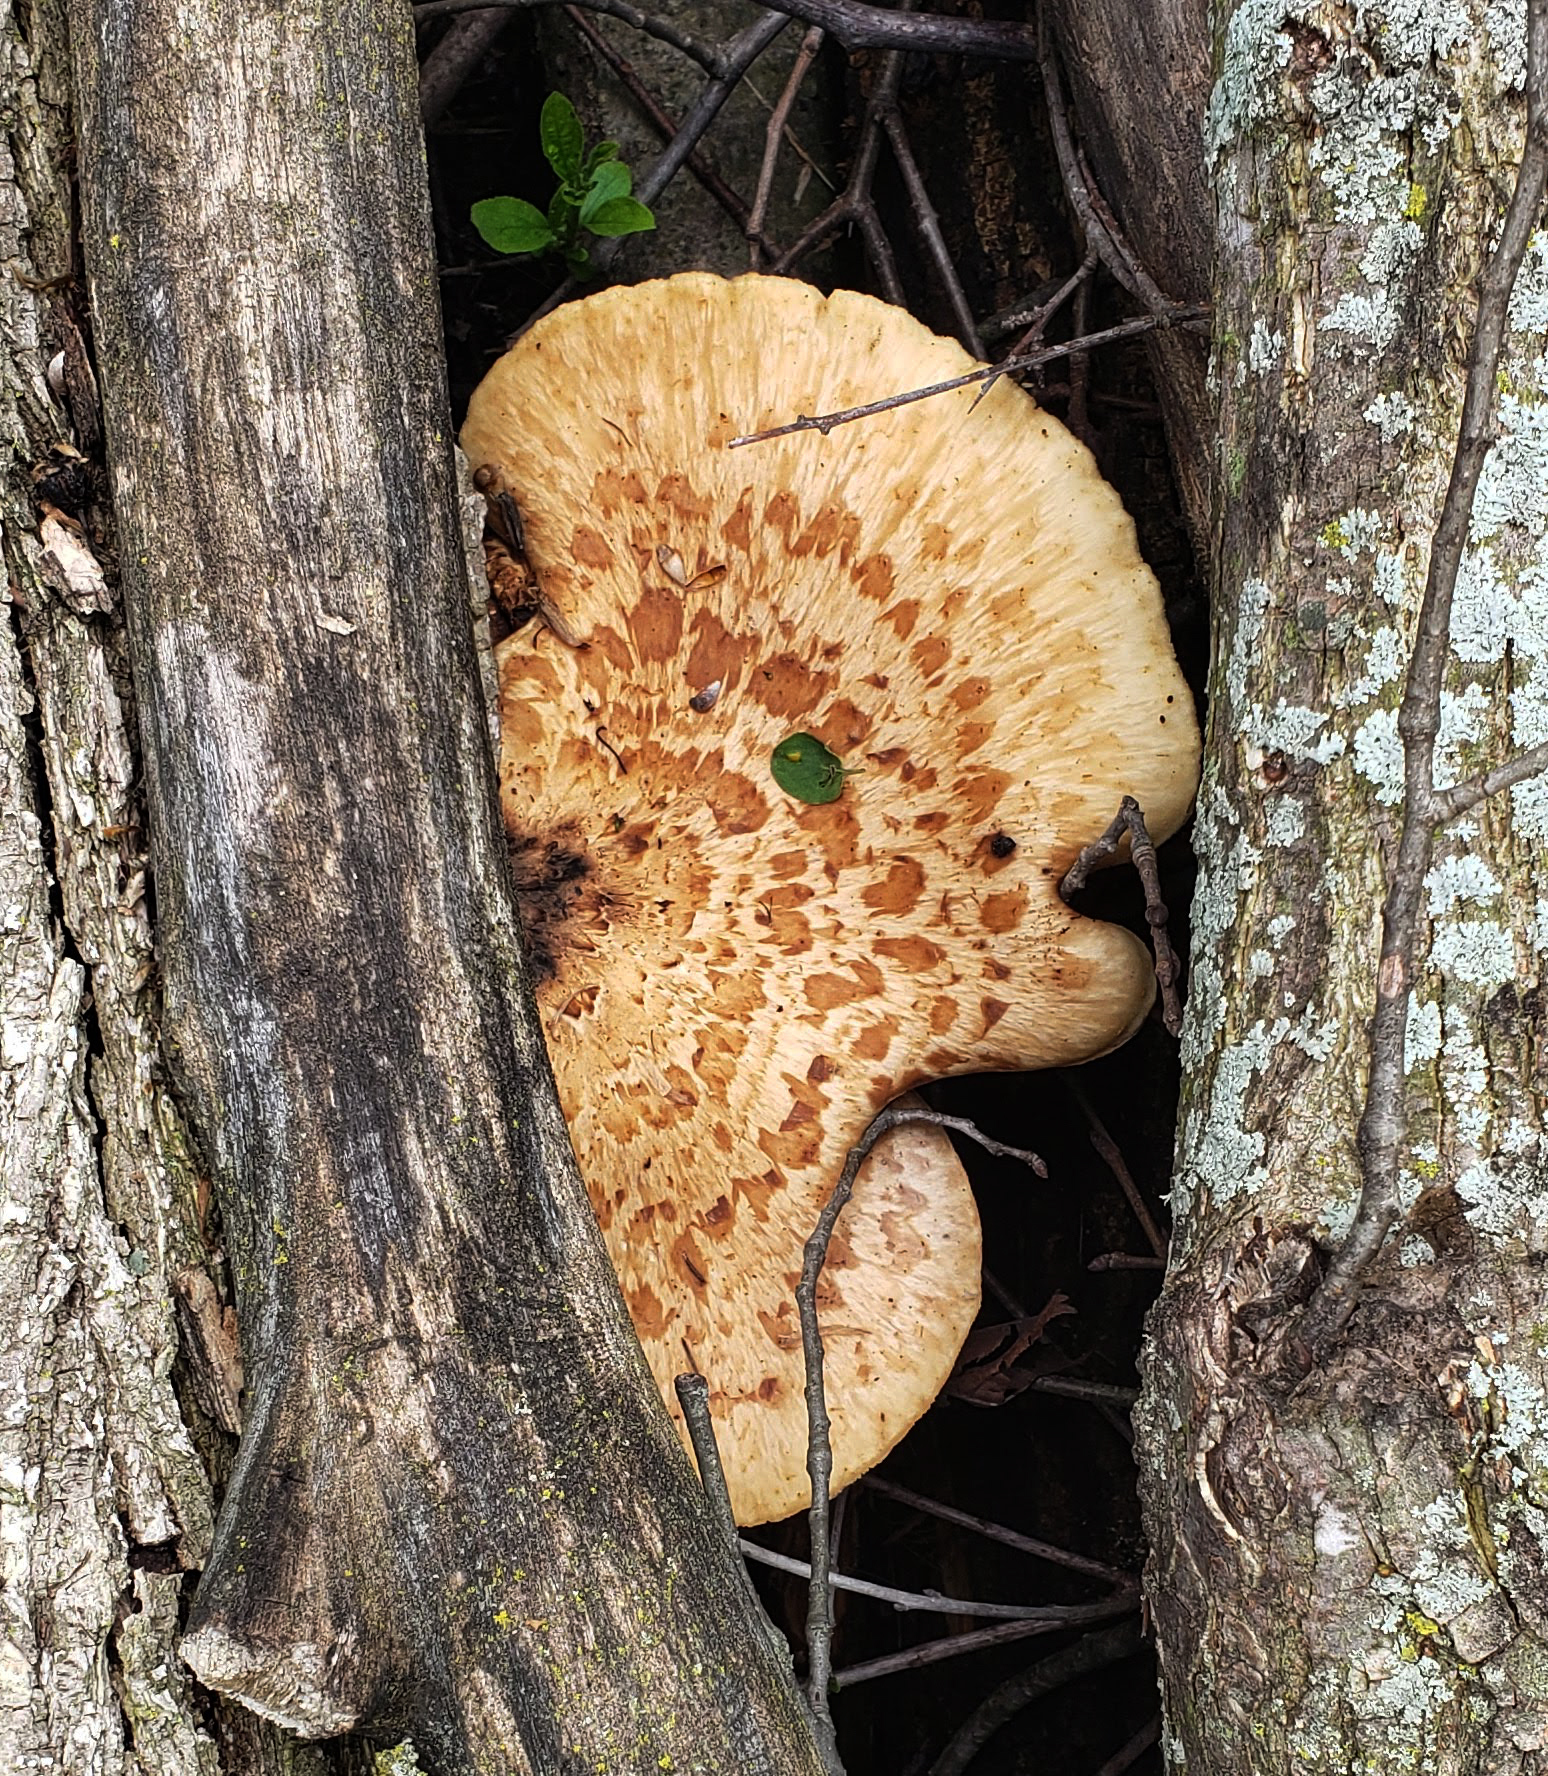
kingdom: Fungi
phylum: Basidiomycota
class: Agaricomycetes
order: Polyporales
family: Polyporaceae
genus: Cerioporus
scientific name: Cerioporus squamosus
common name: Dryad's saddle
